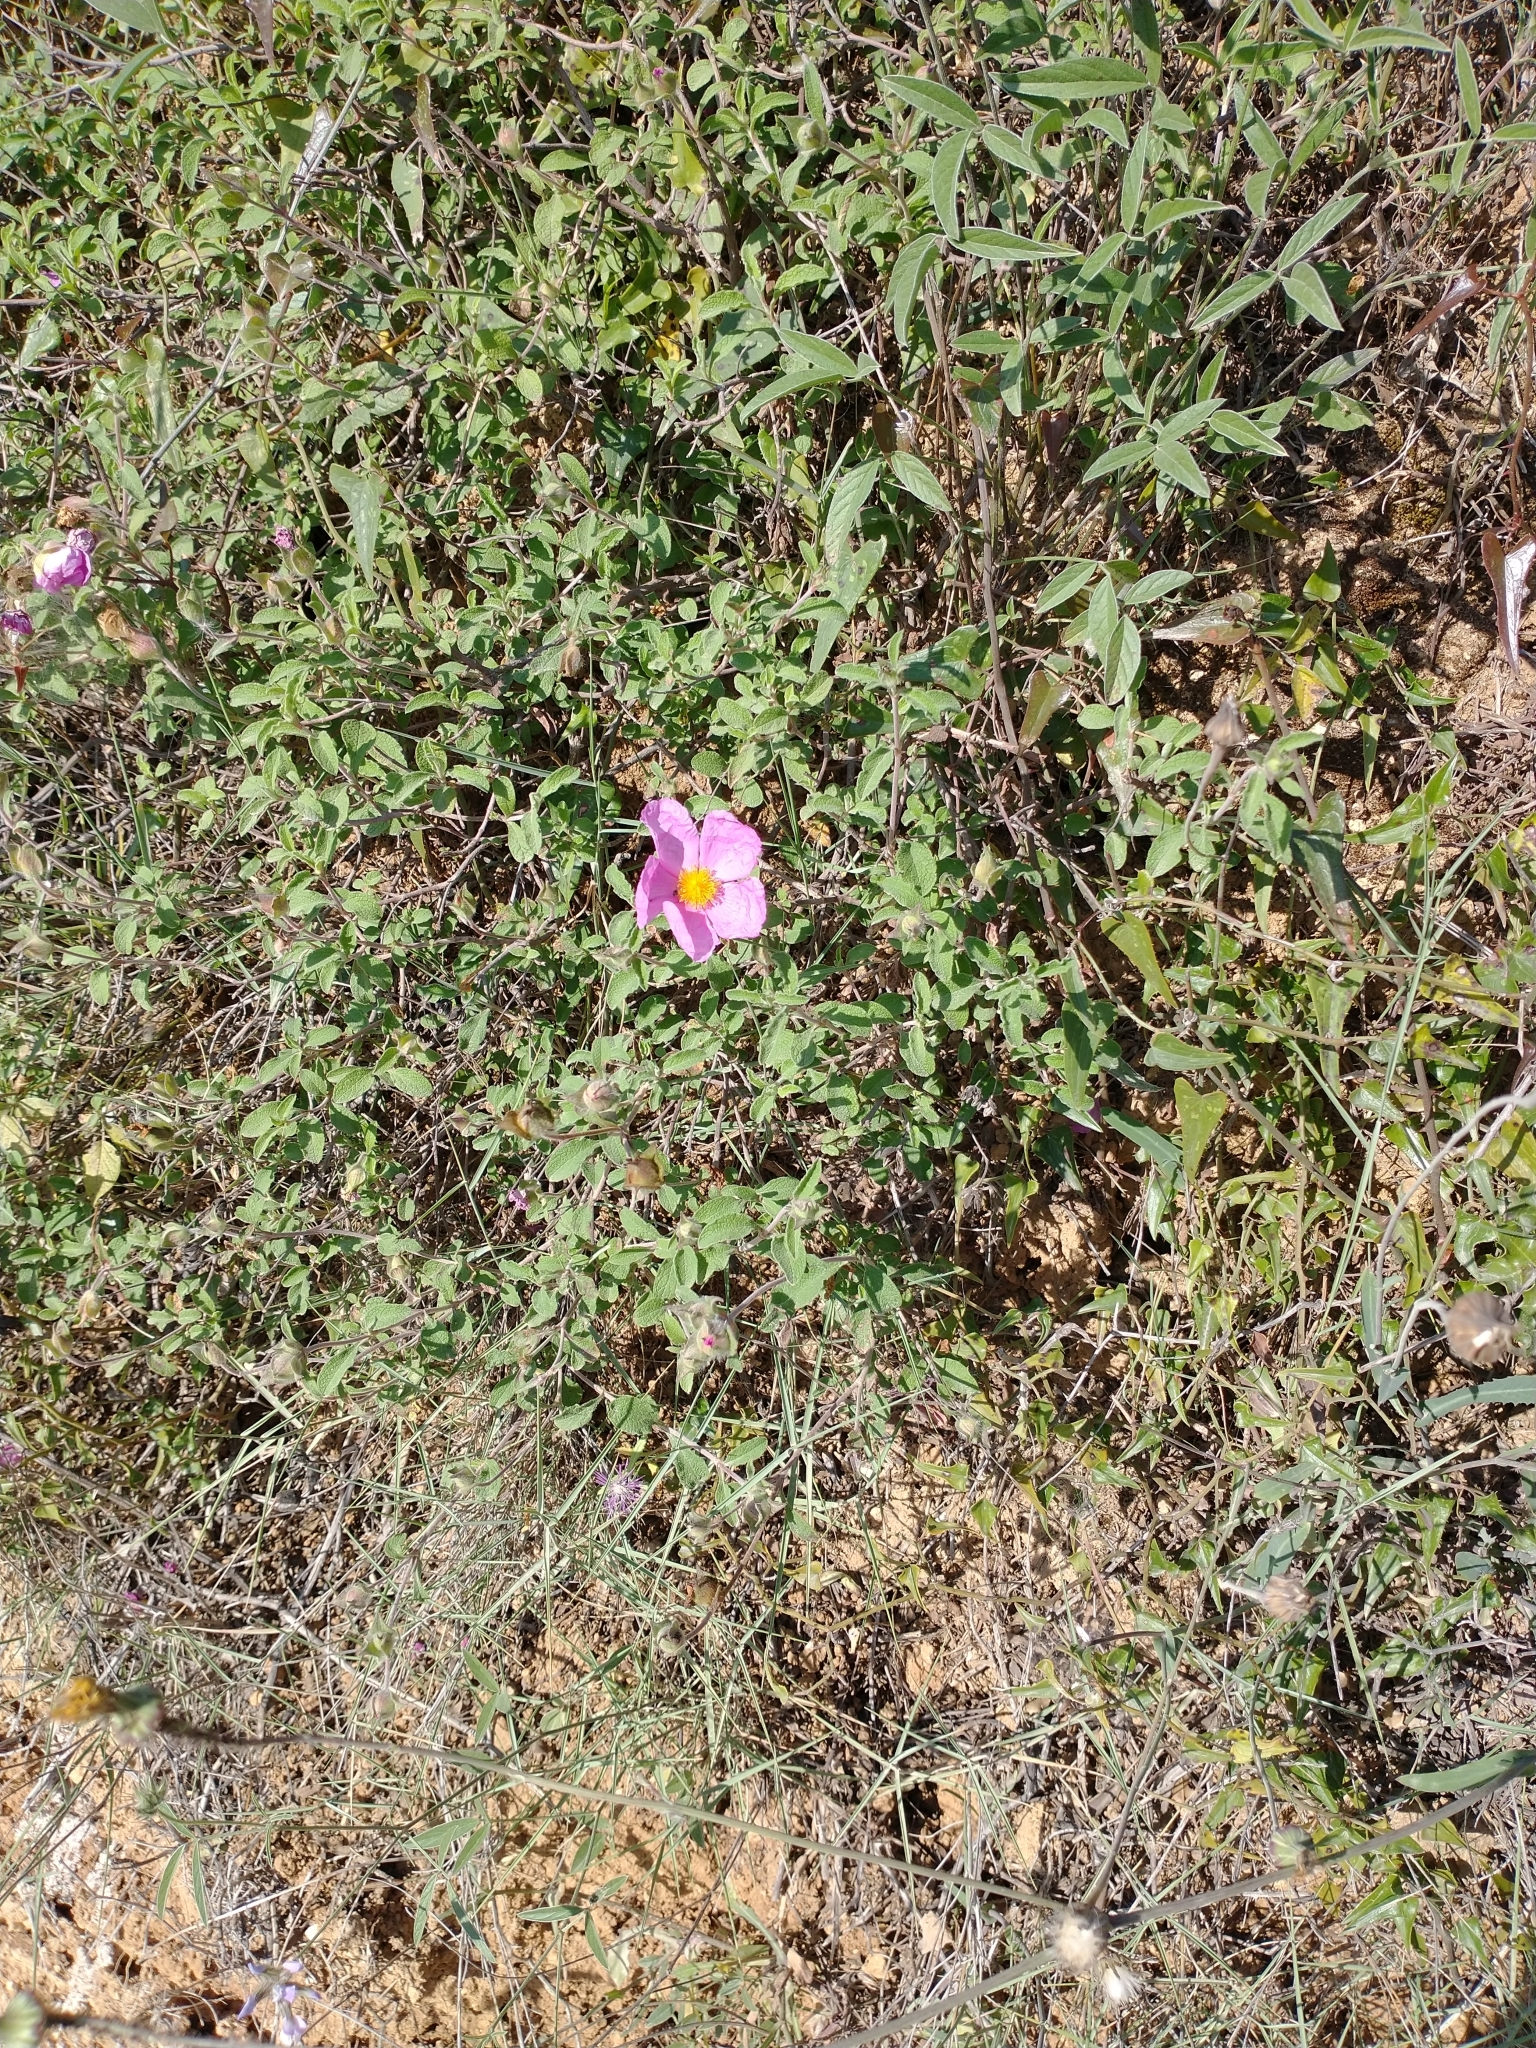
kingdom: Plantae
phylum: Tracheophyta
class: Magnoliopsida
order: Malvales
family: Cistaceae
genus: Cistus
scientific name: Cistus creticus
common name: Cretan rockrose
